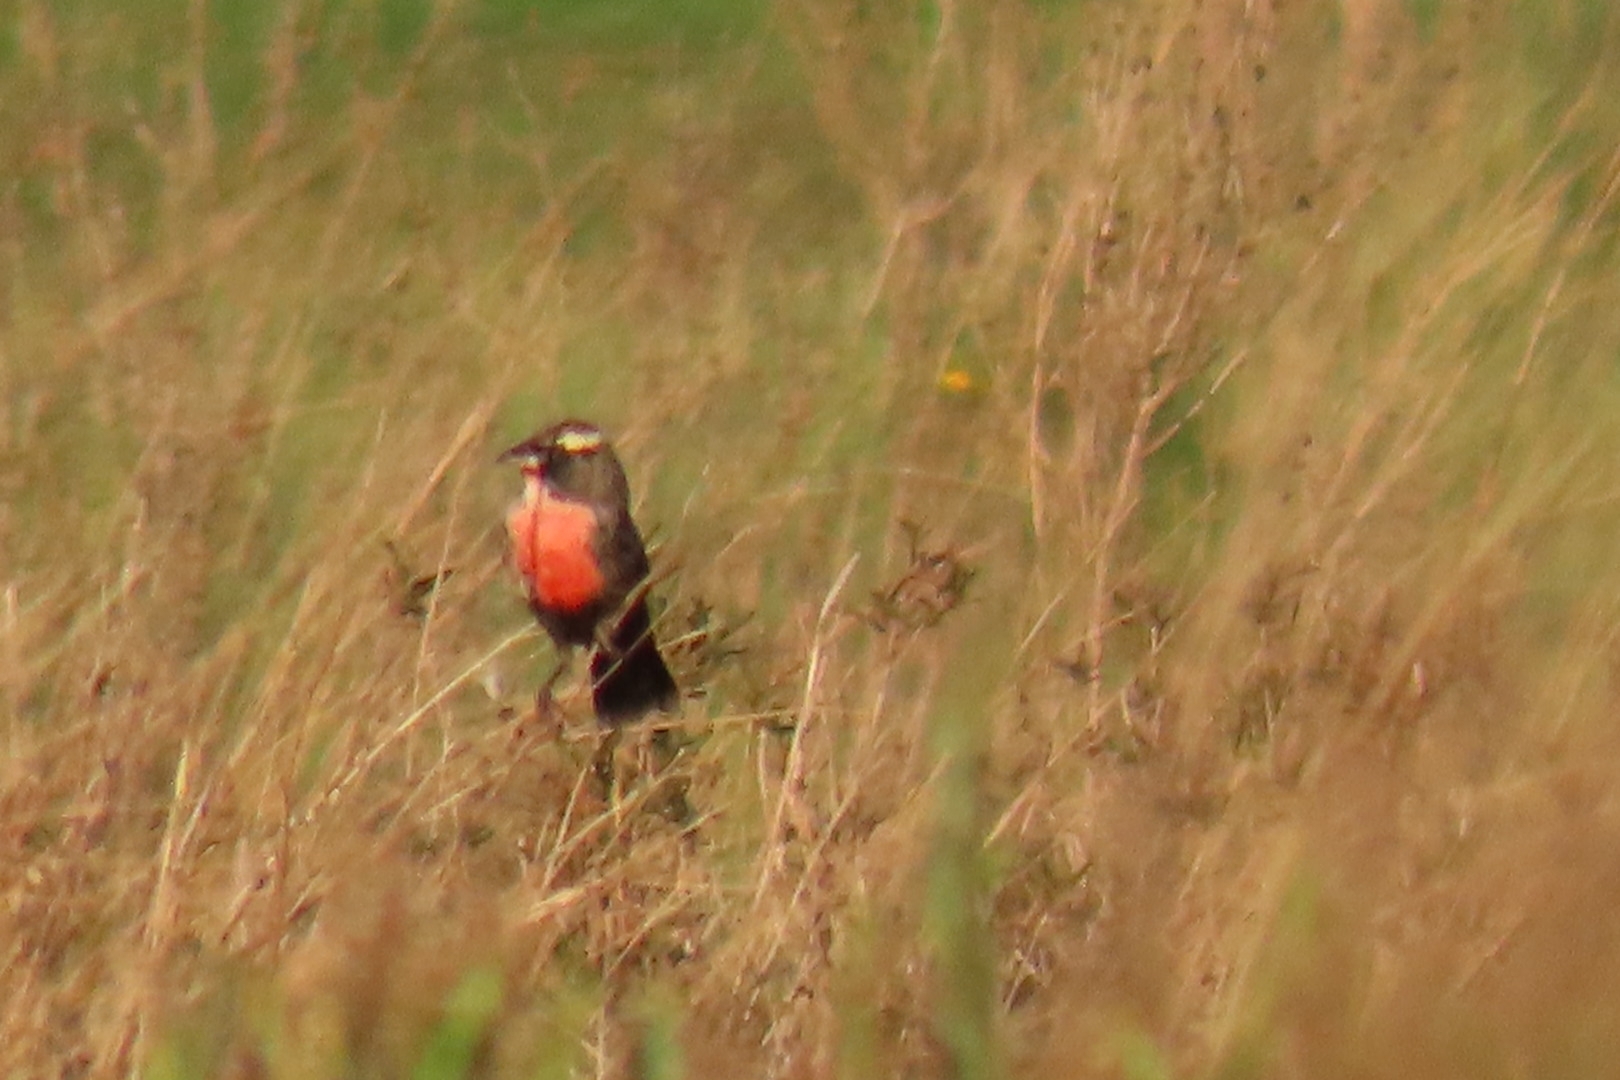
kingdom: Animalia
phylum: Chordata
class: Aves
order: Passeriformes
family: Icteridae
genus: Sturnella
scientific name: Sturnella superciliaris
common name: White-browed blackbird
